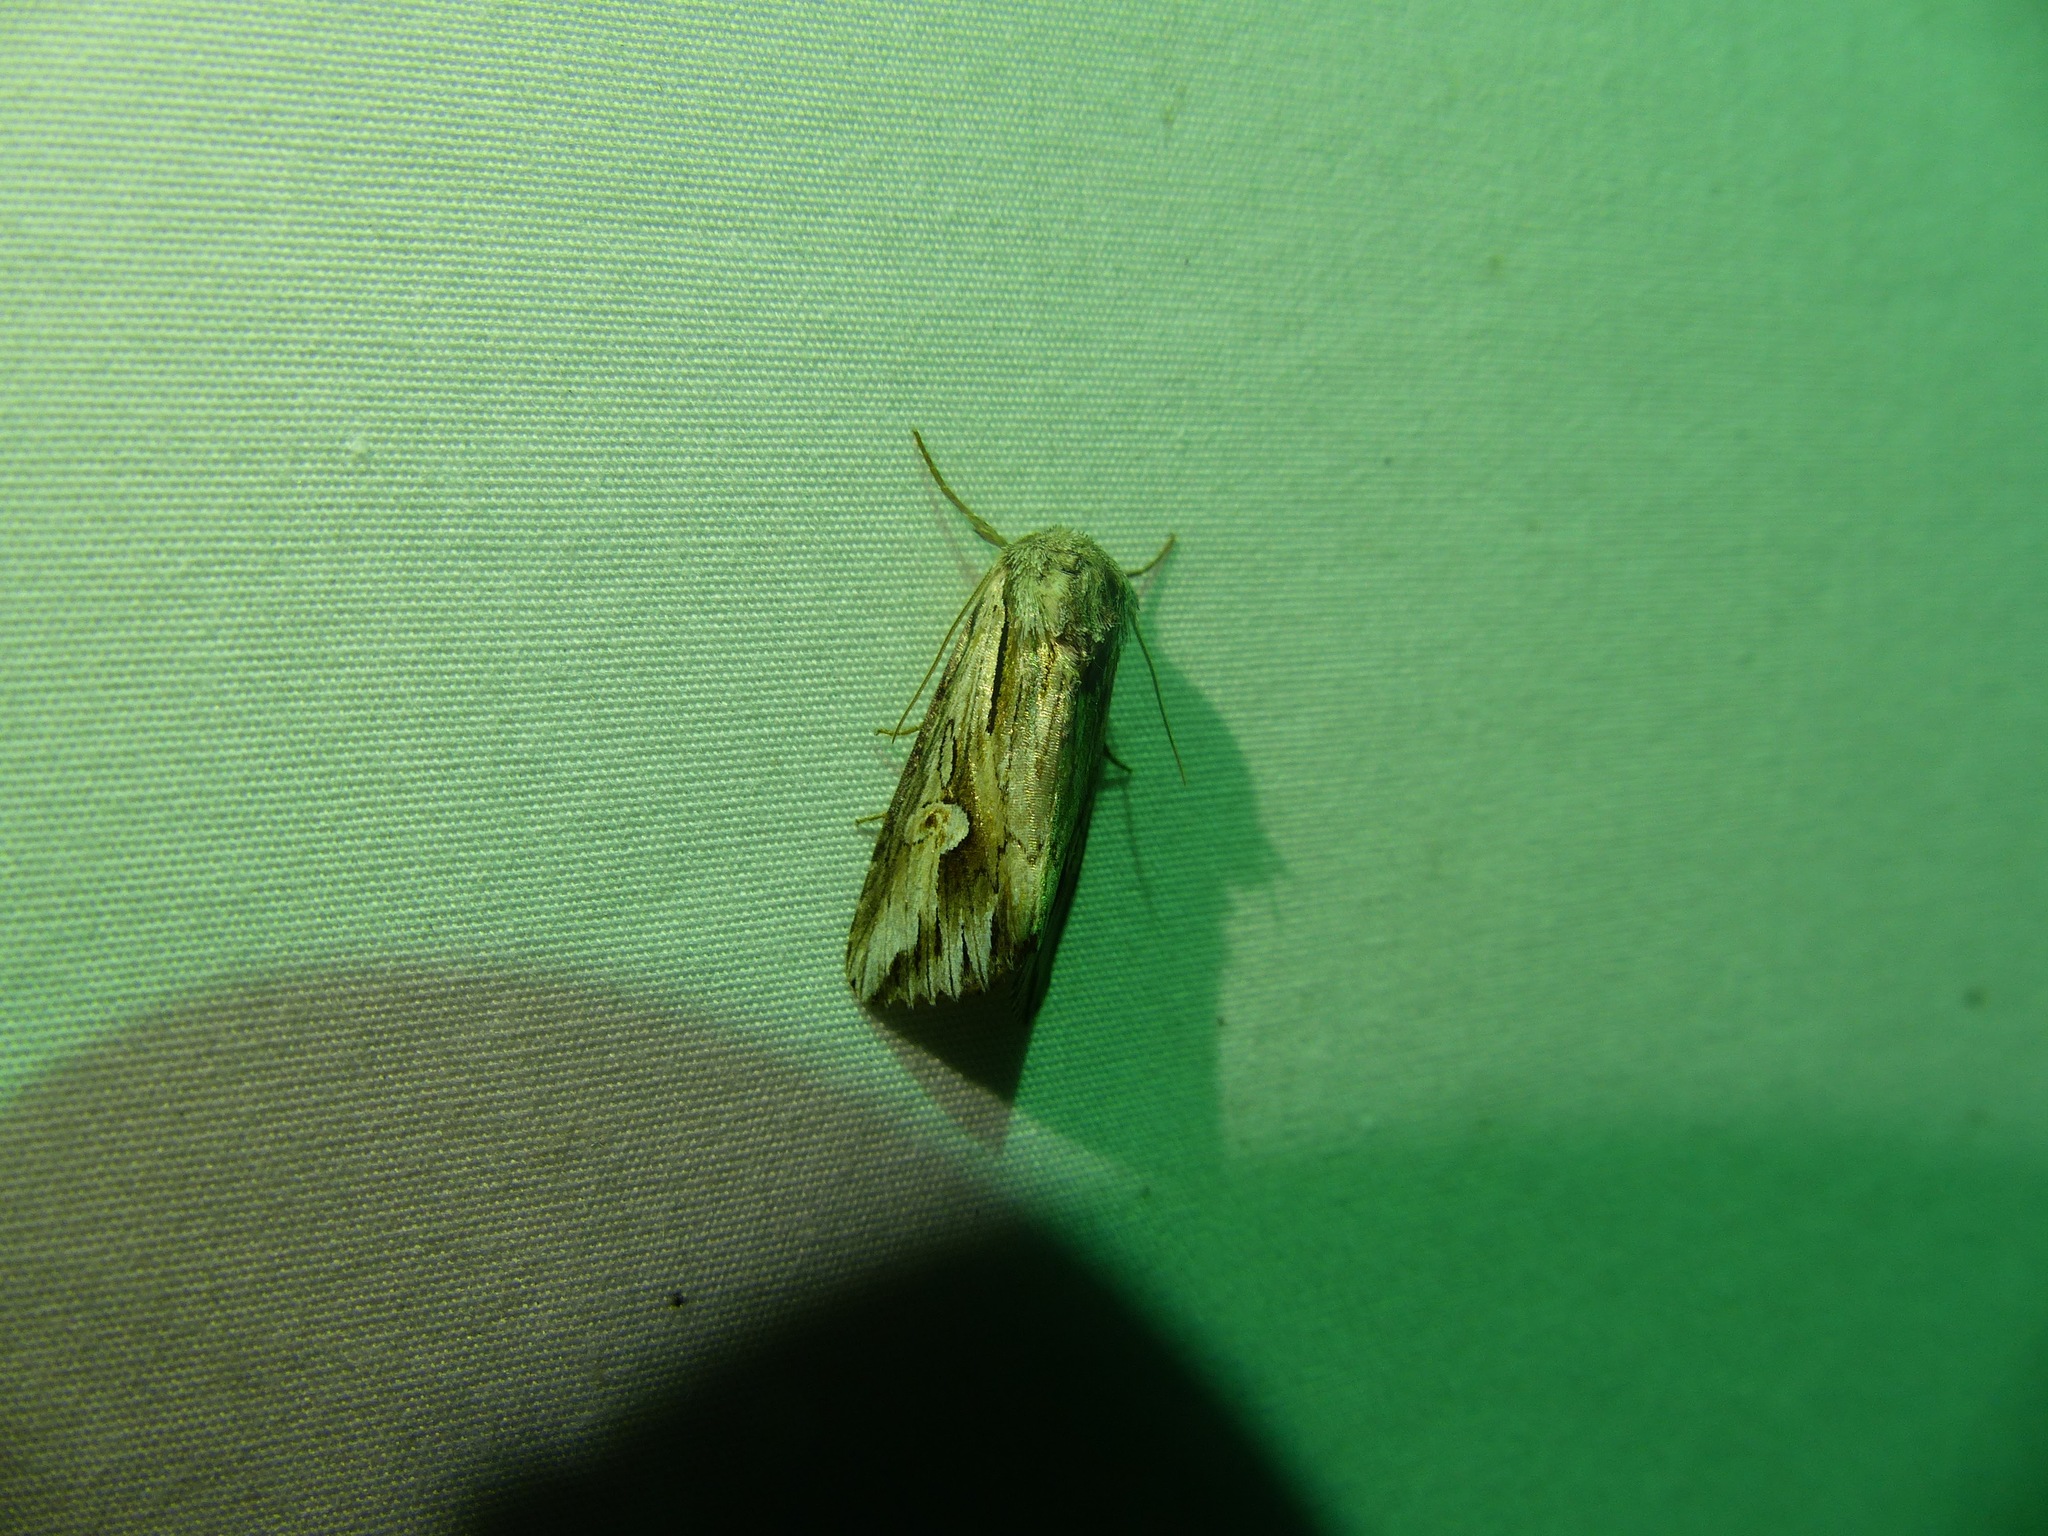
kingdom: Animalia
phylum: Arthropoda
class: Insecta
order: Lepidoptera
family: Noctuidae
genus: Nedra
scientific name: Nedra ramosula
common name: Gray half-spot
